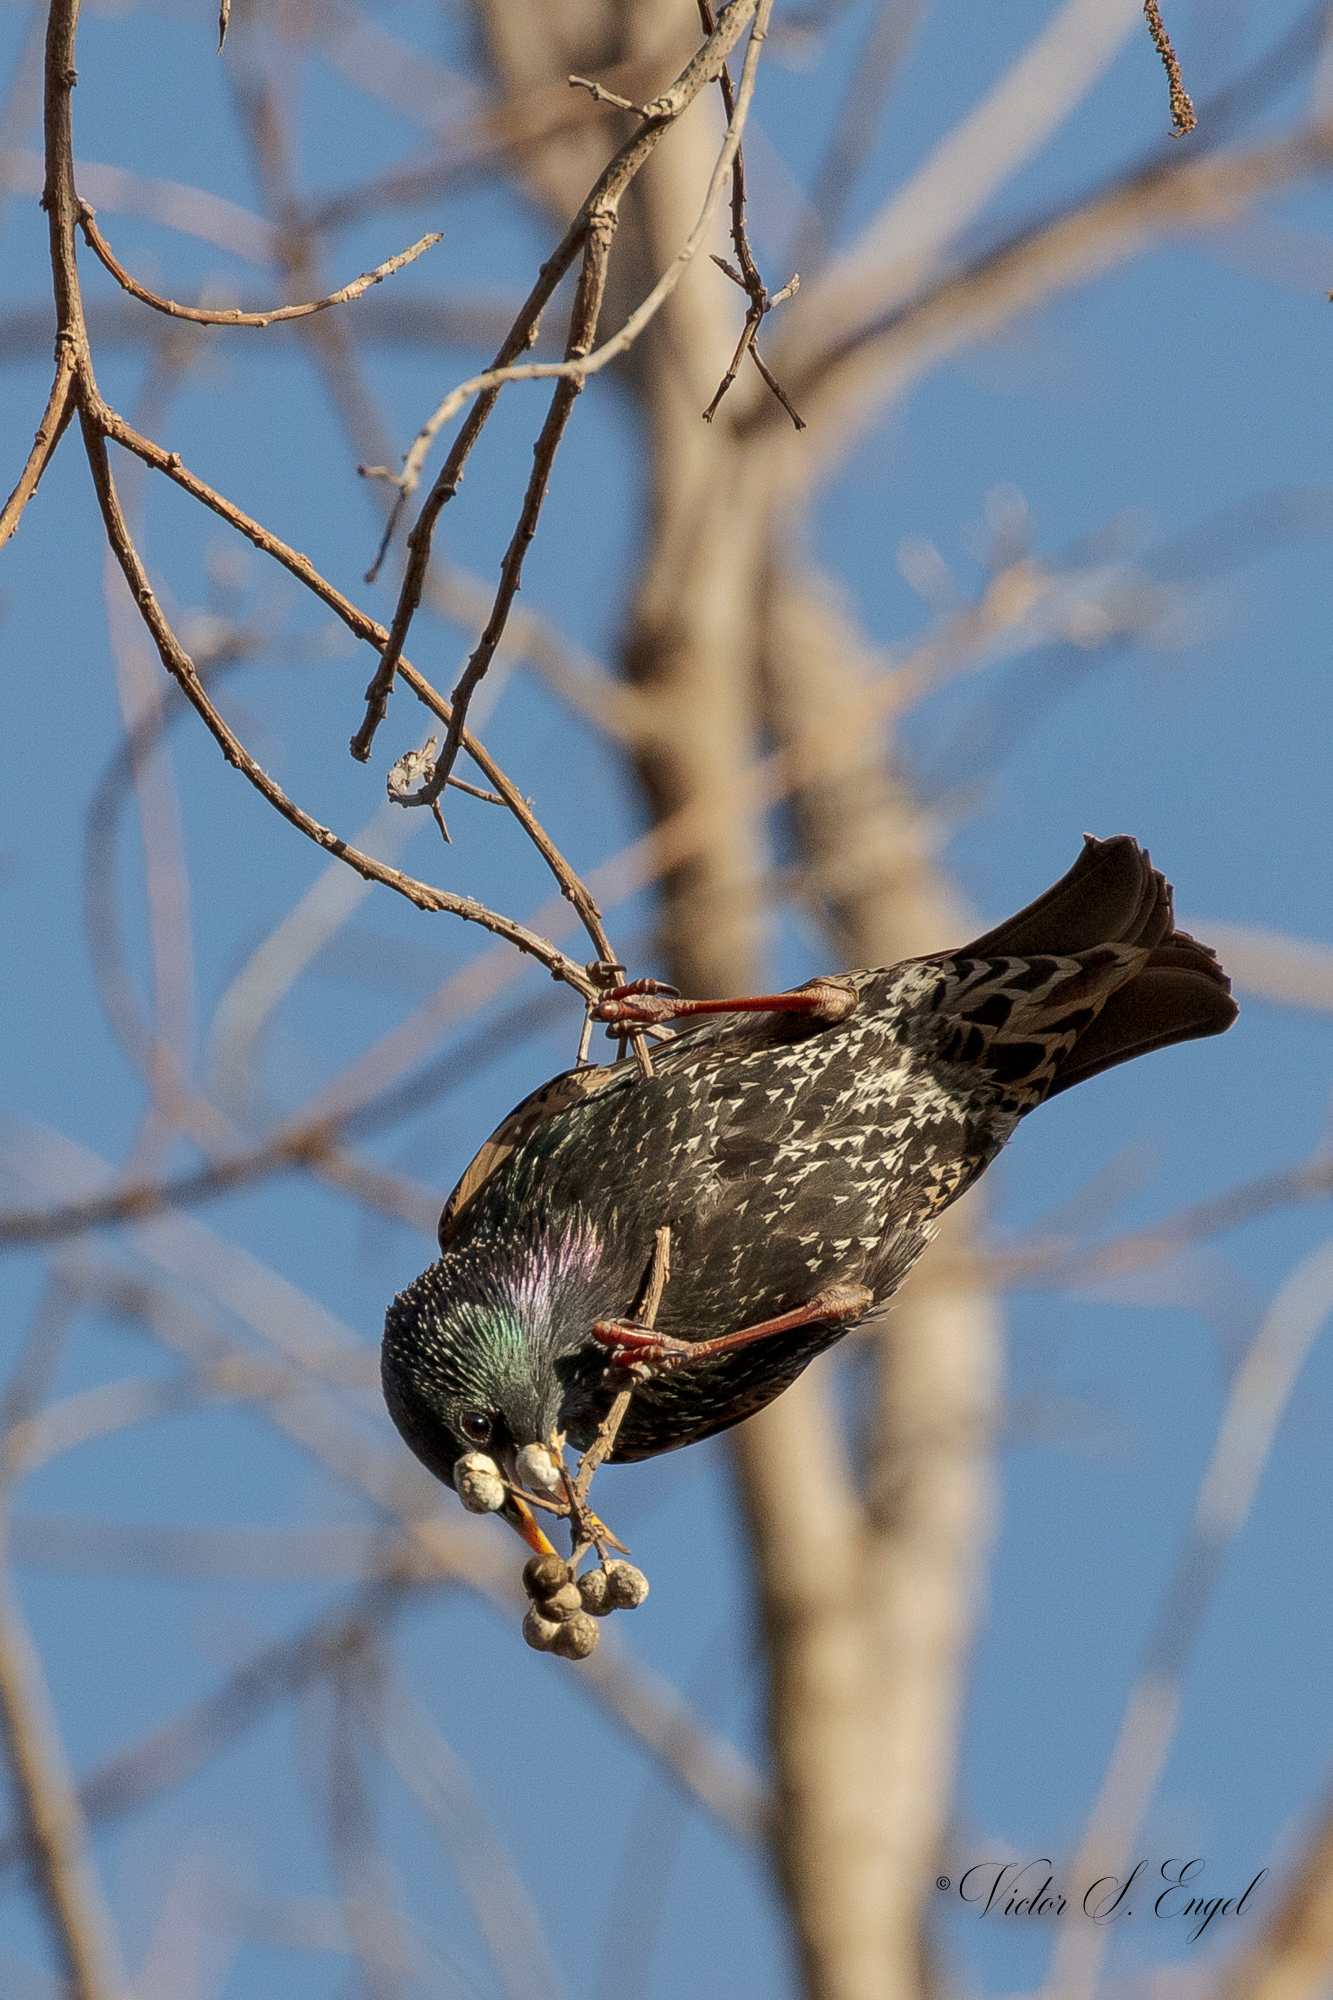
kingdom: Animalia
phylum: Chordata
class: Aves
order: Passeriformes
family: Sturnidae
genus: Sturnus
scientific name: Sturnus vulgaris
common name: Common starling
